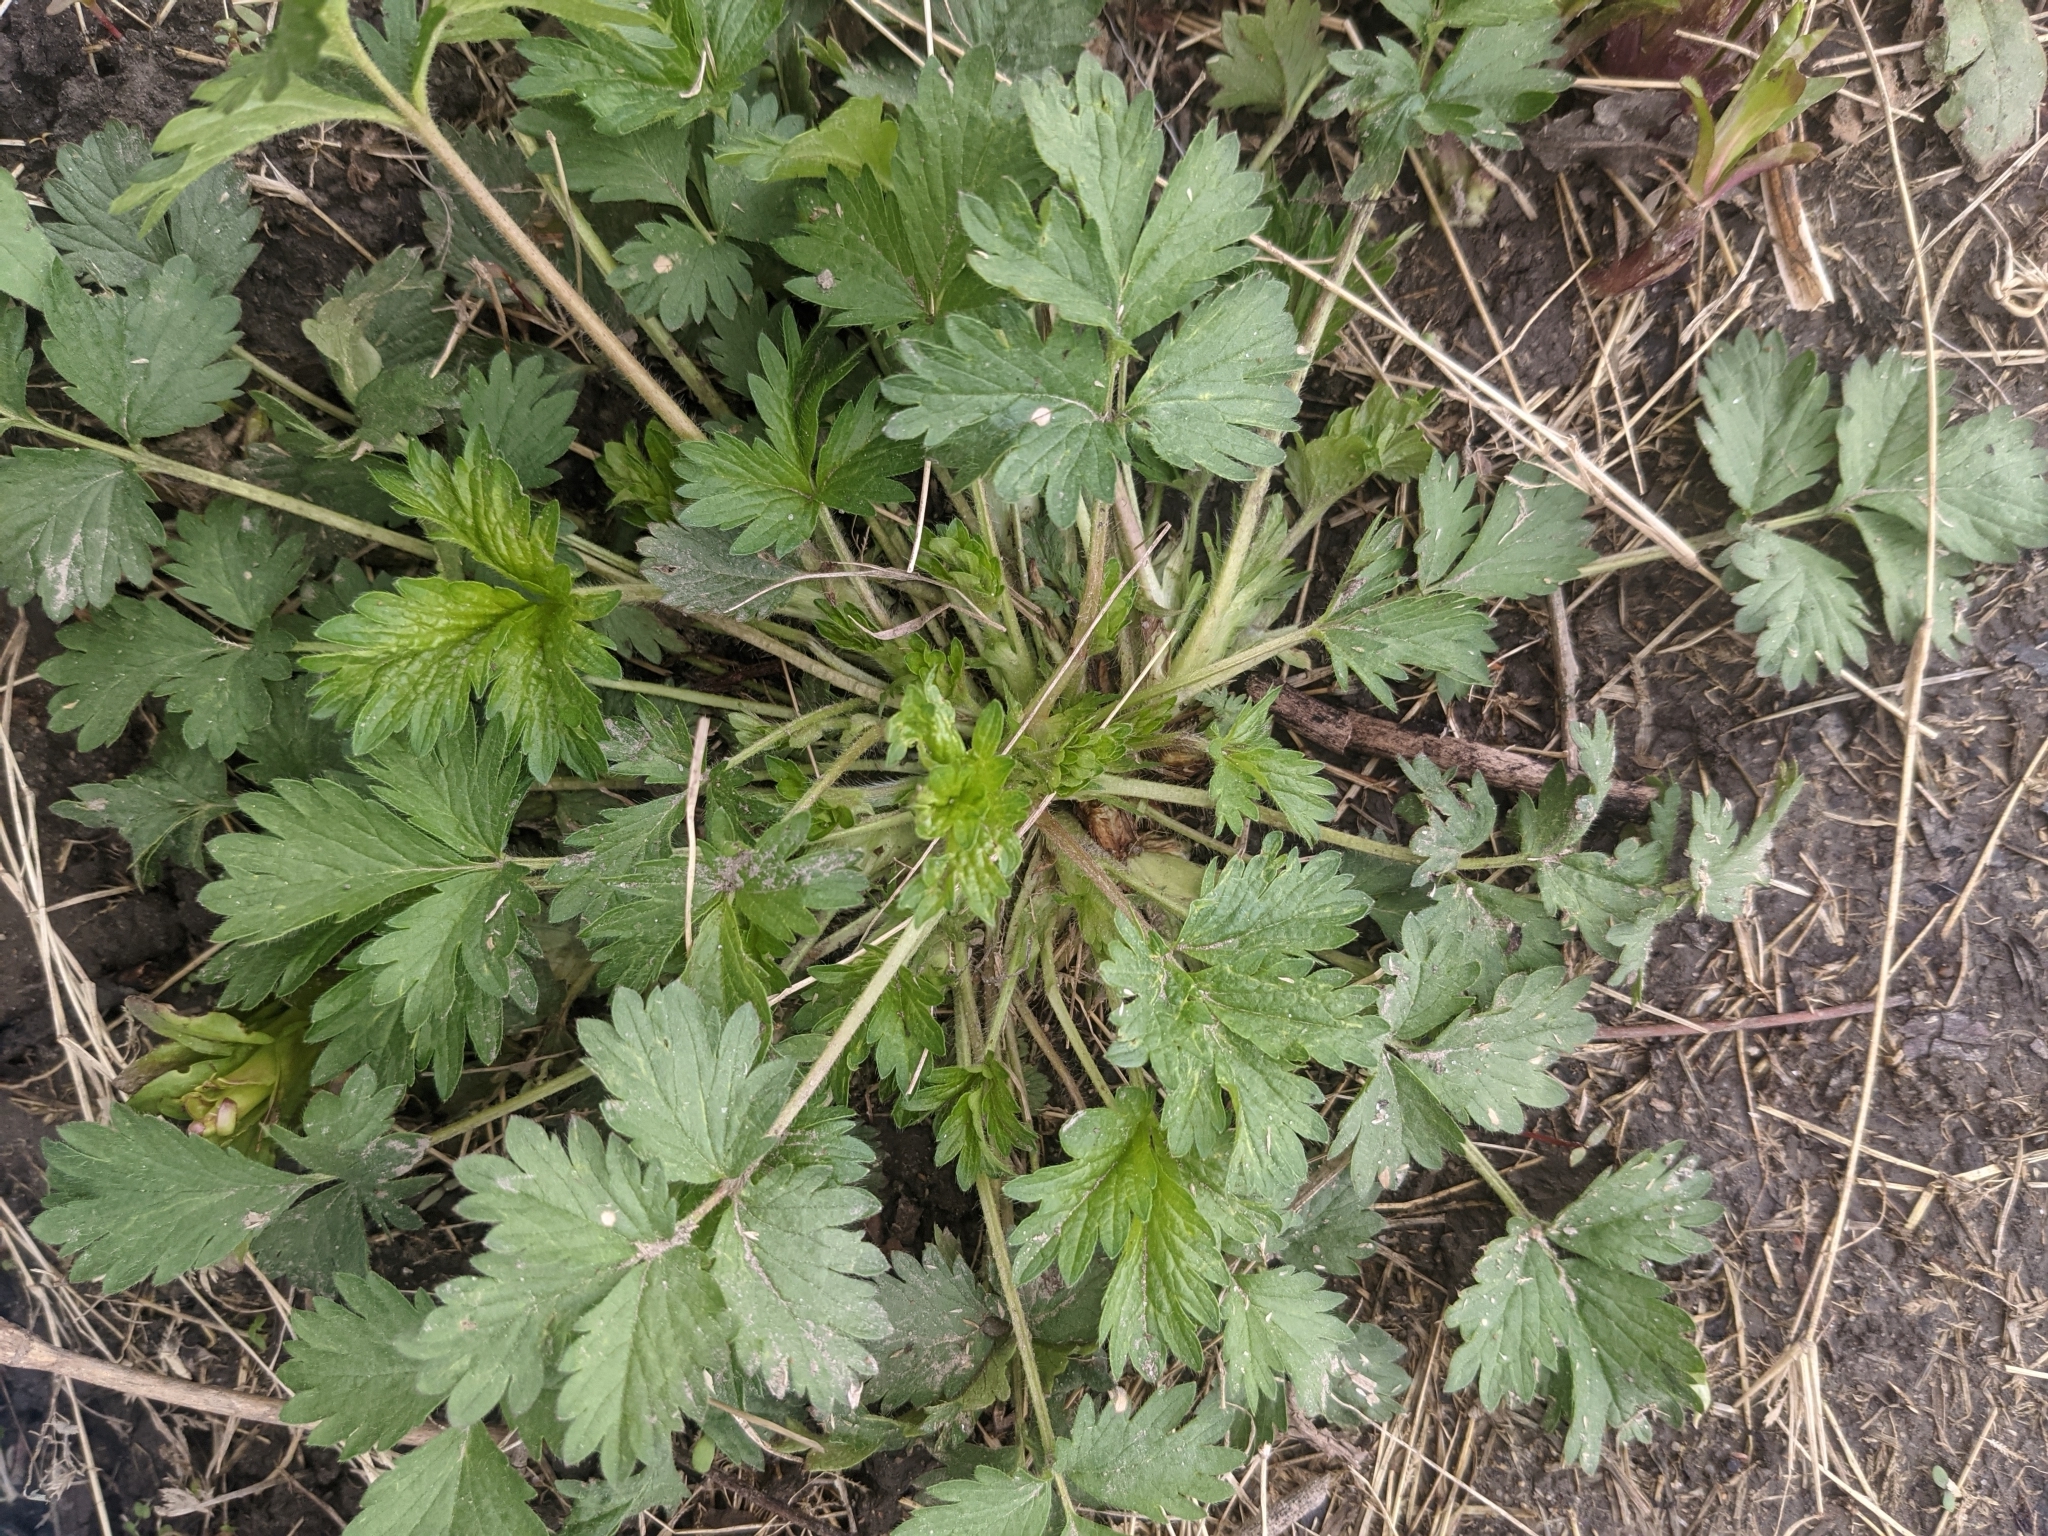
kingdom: Plantae
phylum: Tracheophyta
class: Magnoliopsida
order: Asterales
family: Asteraceae
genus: Rudbeckia
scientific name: Rudbeckia laciniata
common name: Coneflower
